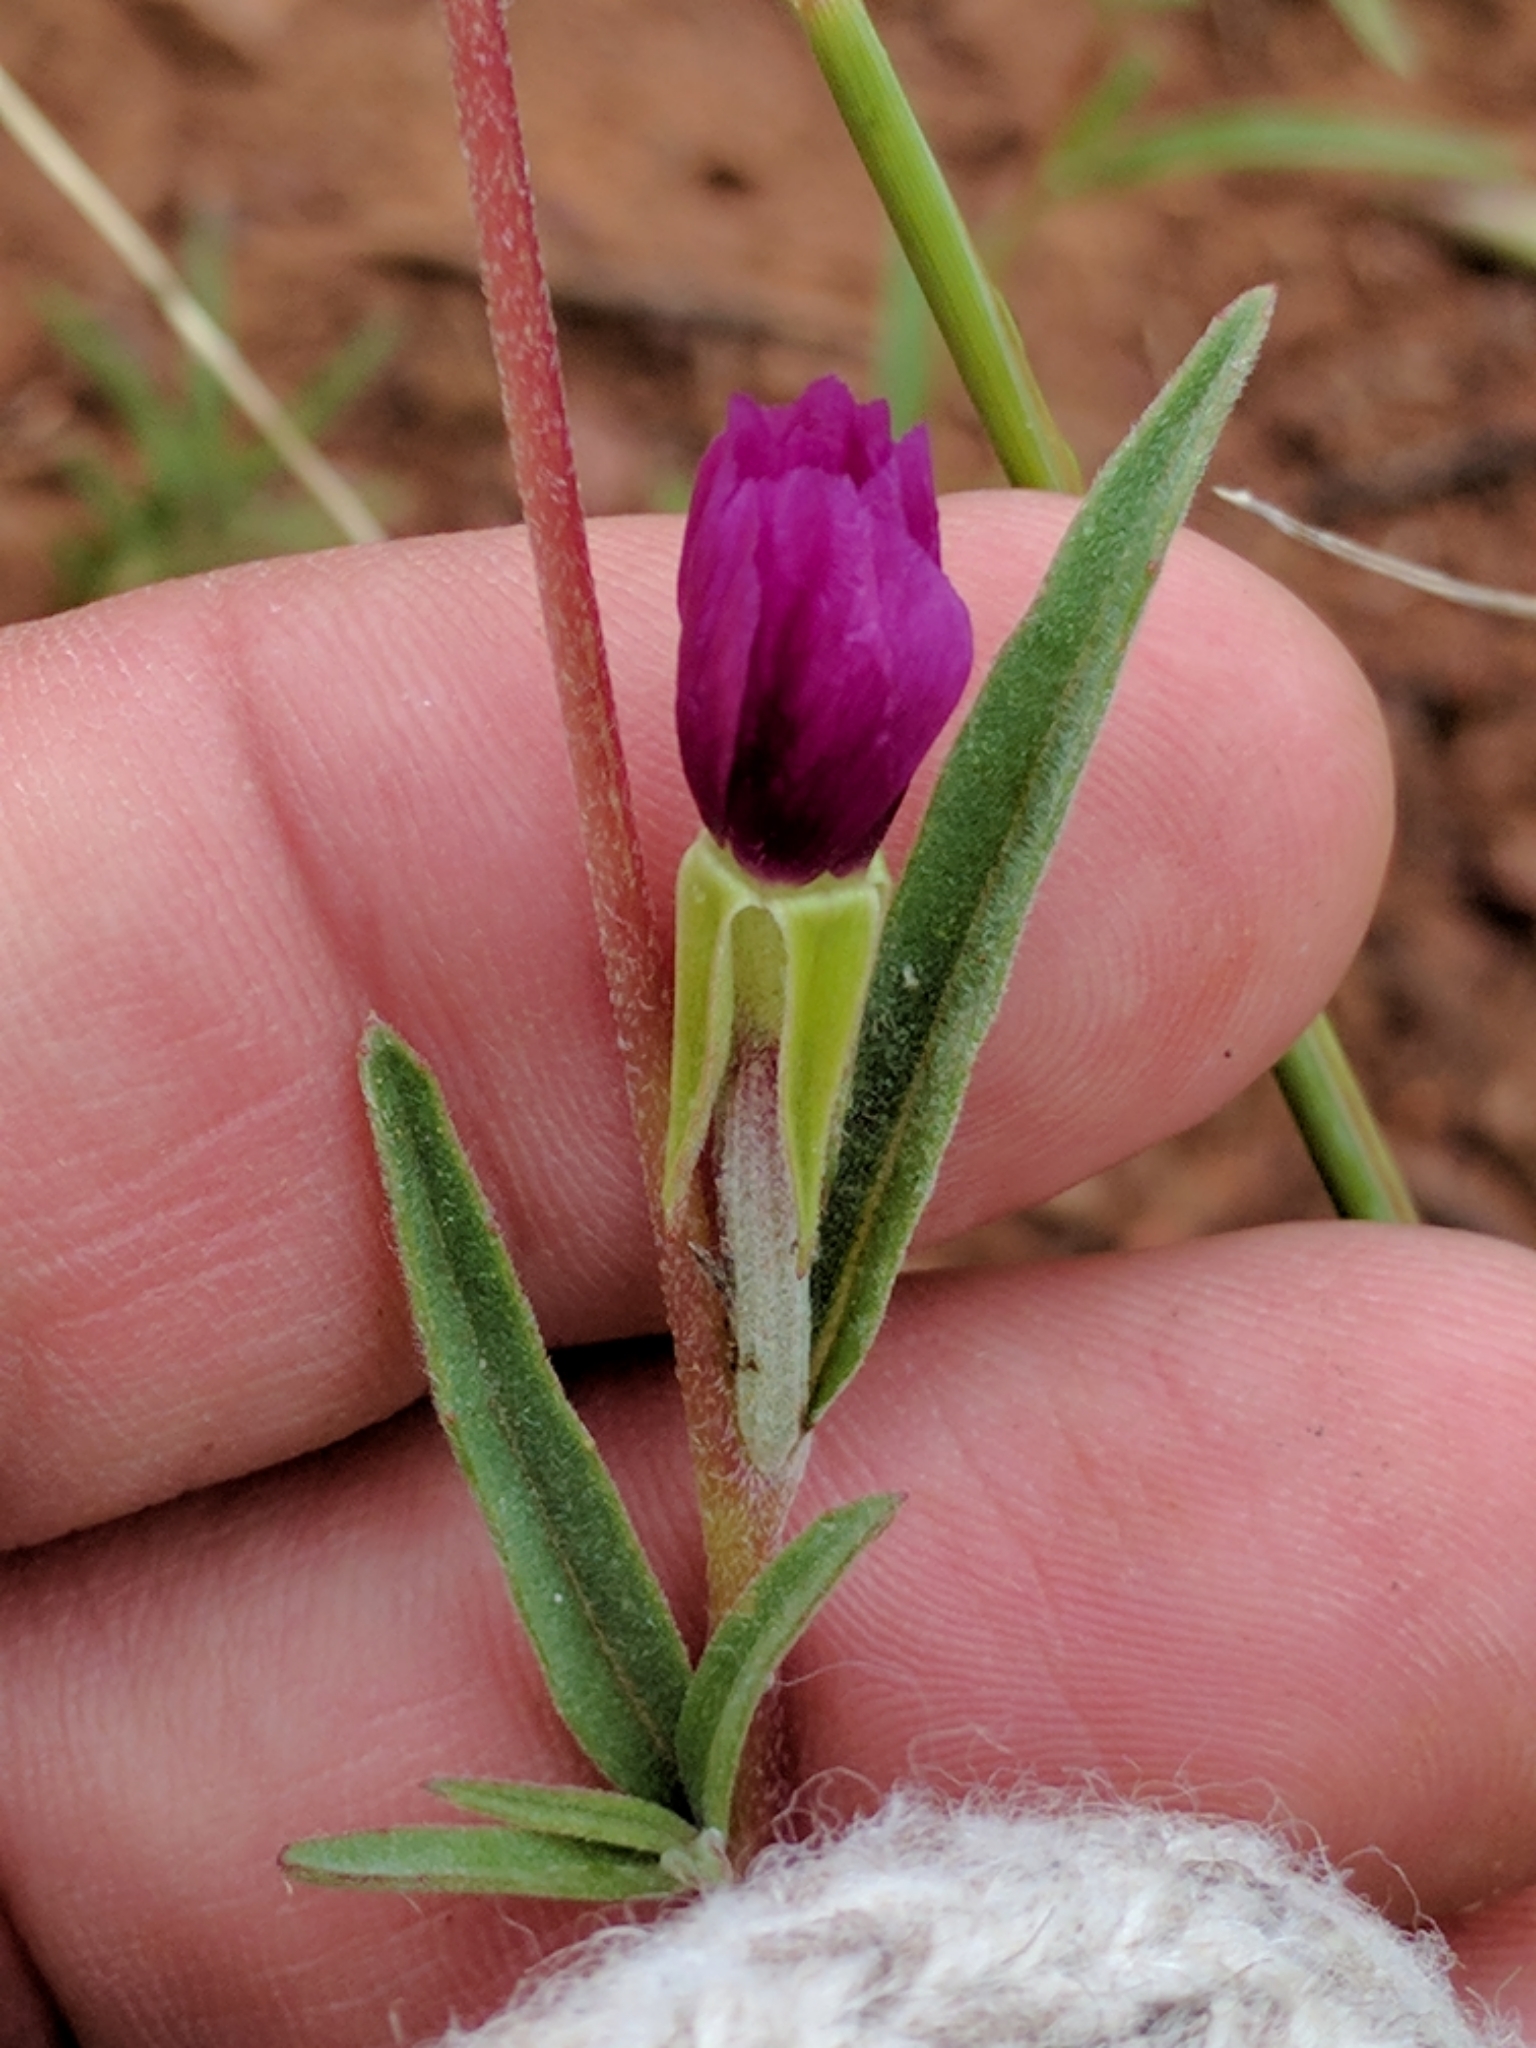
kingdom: Plantae
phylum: Tracheophyta
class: Magnoliopsida
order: Myrtales
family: Onagraceae
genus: Clarkia
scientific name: Clarkia purpurea
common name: Purple clarkia
